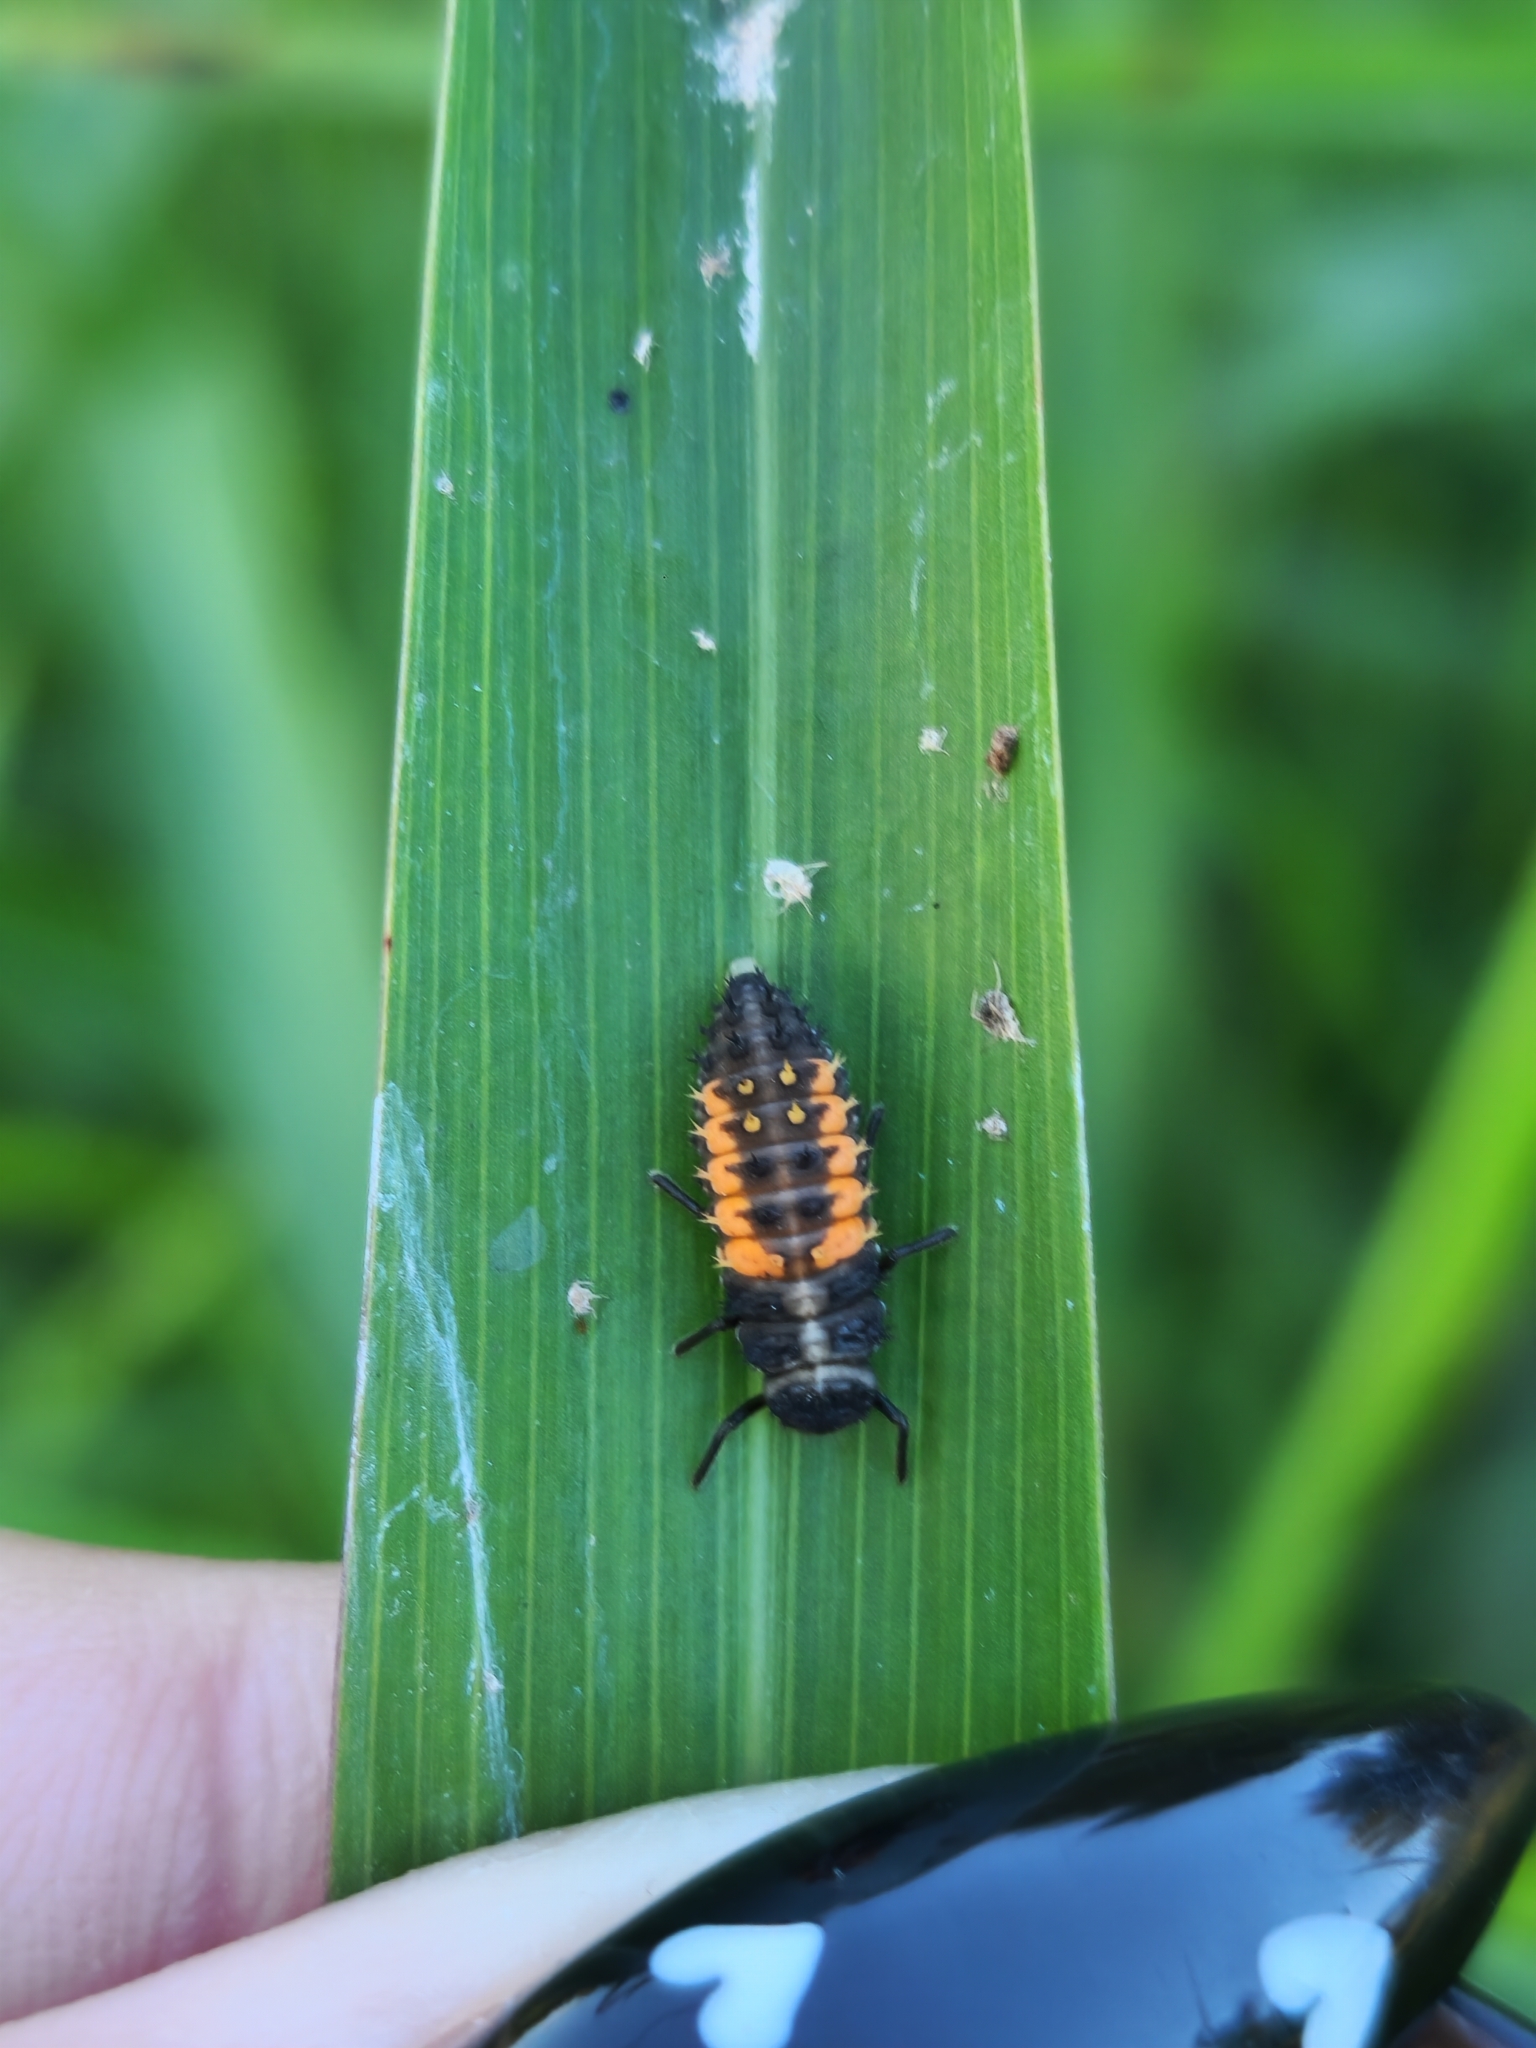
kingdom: Animalia
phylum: Arthropoda
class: Insecta
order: Coleoptera
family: Coccinellidae
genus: Harmonia
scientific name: Harmonia axyridis
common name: Harlequin ladybird
